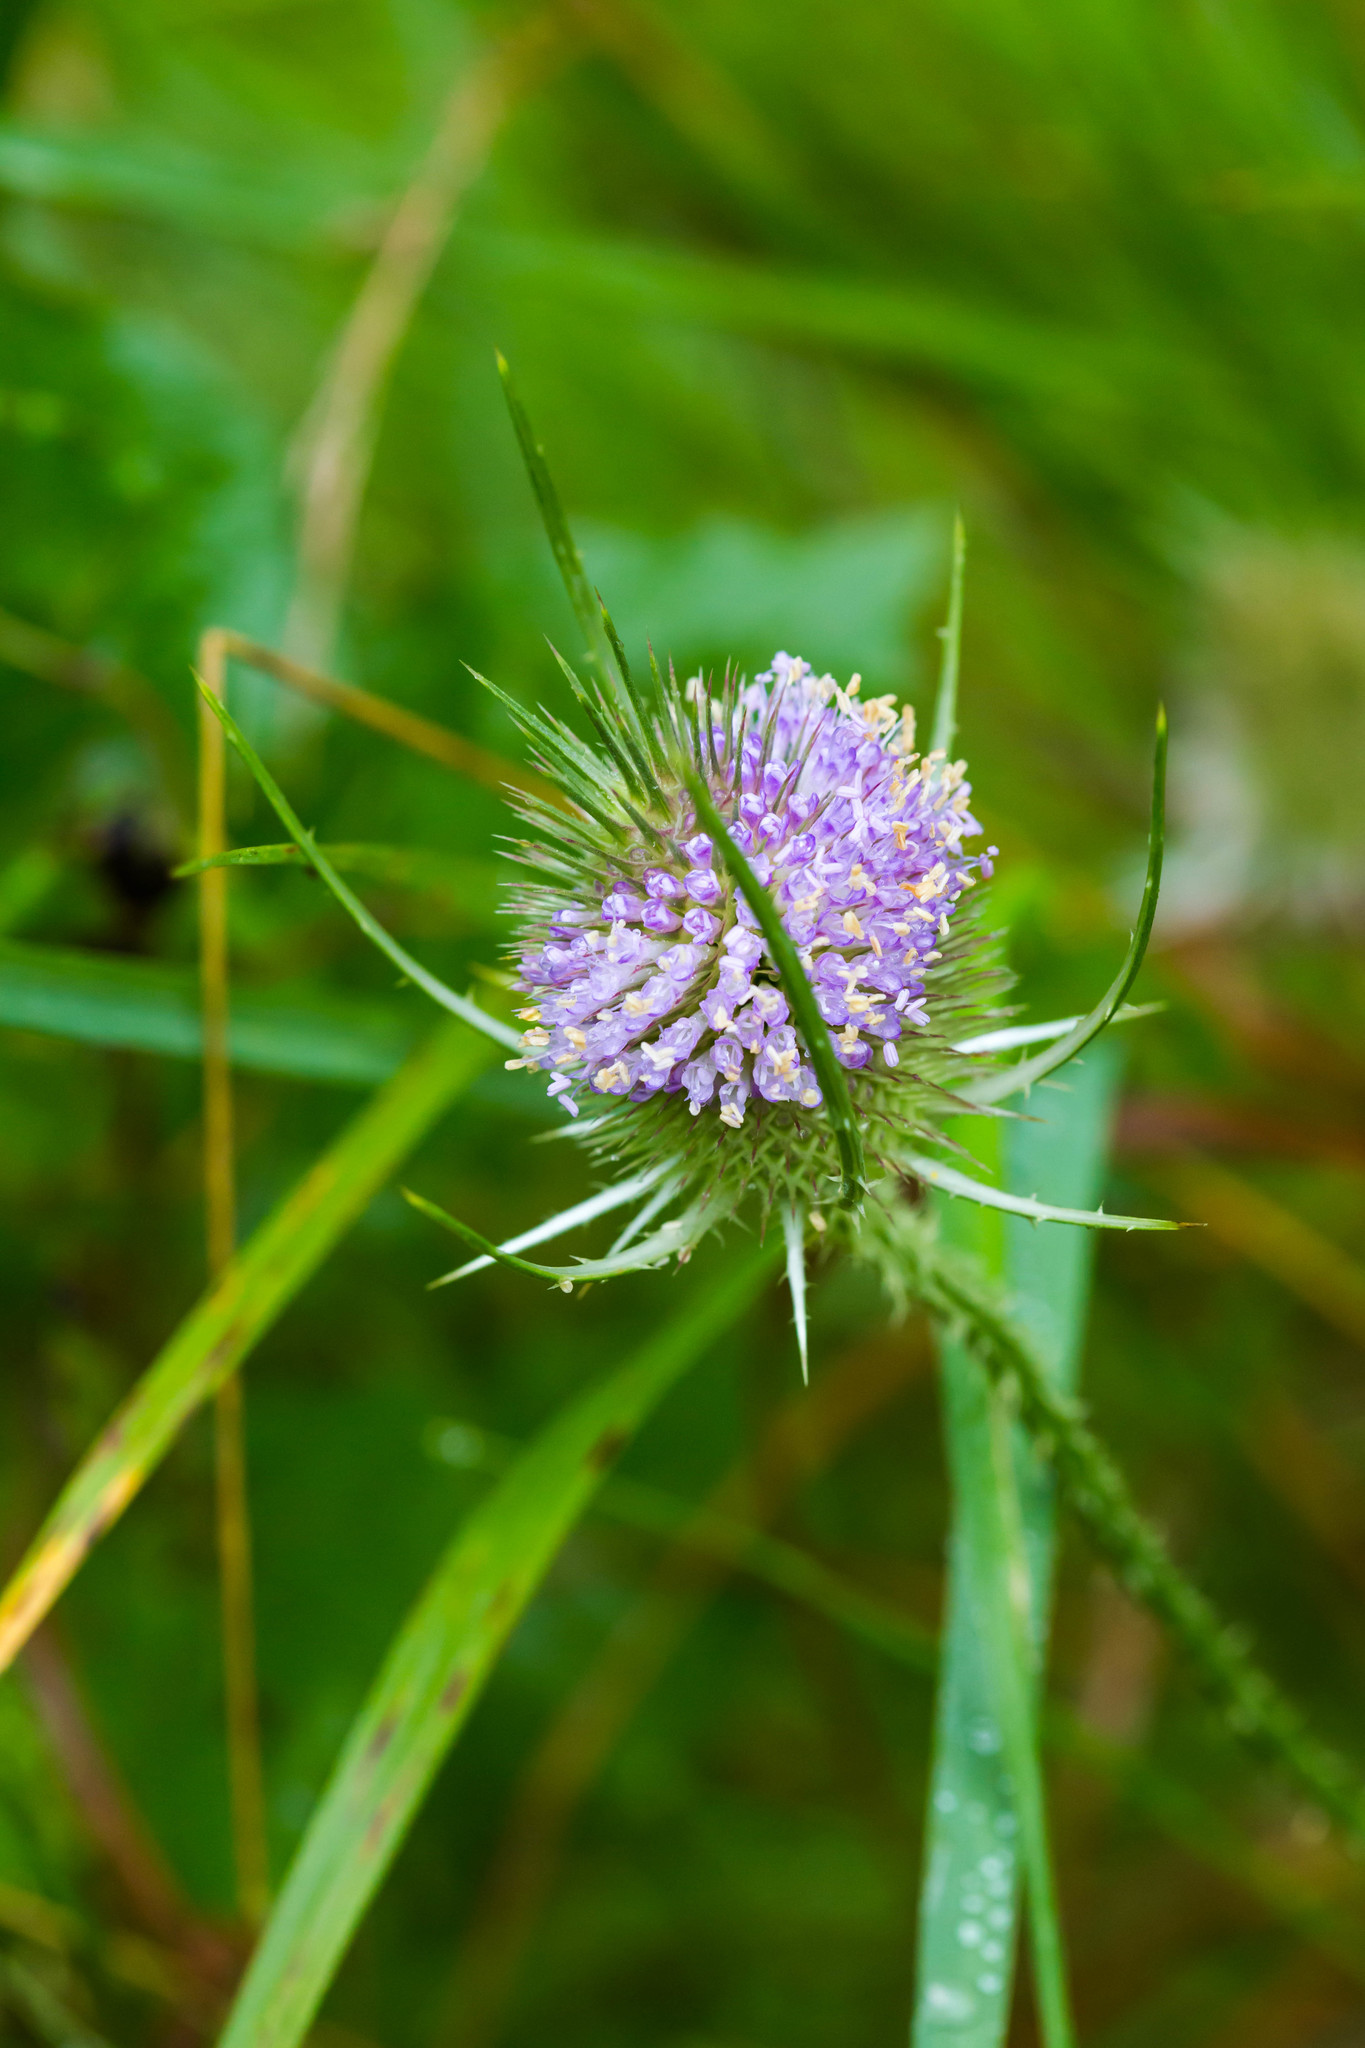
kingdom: Plantae
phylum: Tracheophyta
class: Magnoliopsida
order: Dipsacales
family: Caprifoliaceae
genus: Dipsacus
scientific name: Dipsacus fullonum
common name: Teasel
